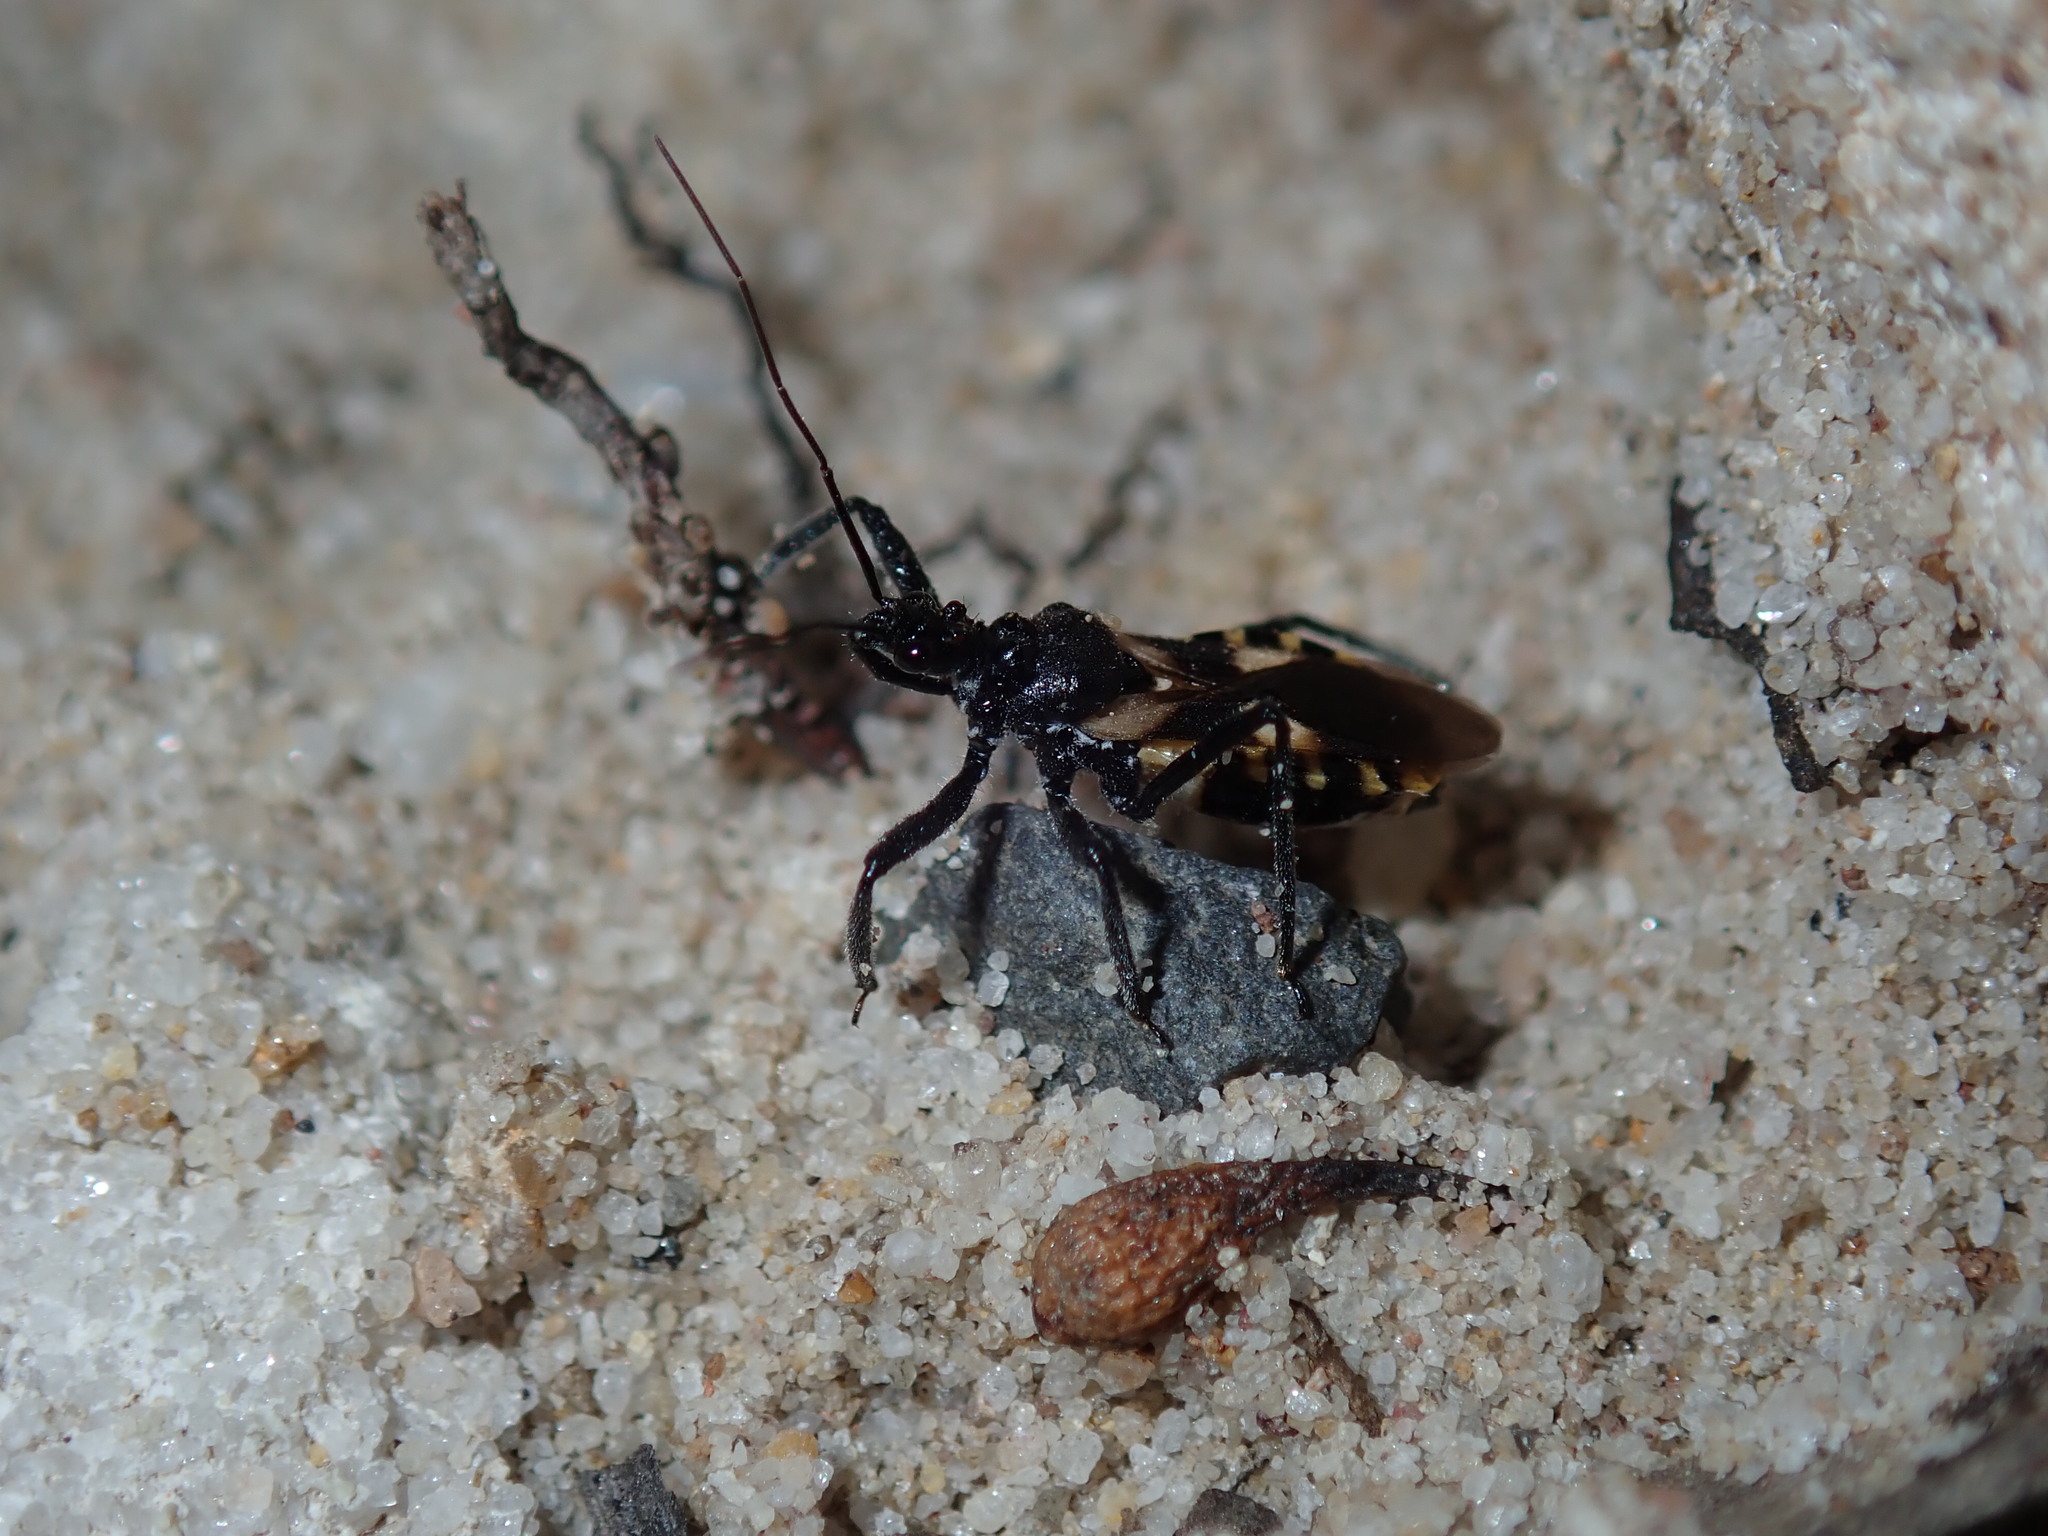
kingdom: Animalia
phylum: Arthropoda
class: Insecta
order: Hemiptera
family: Reduviidae
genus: Catasphactes
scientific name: Catasphactes coprias
